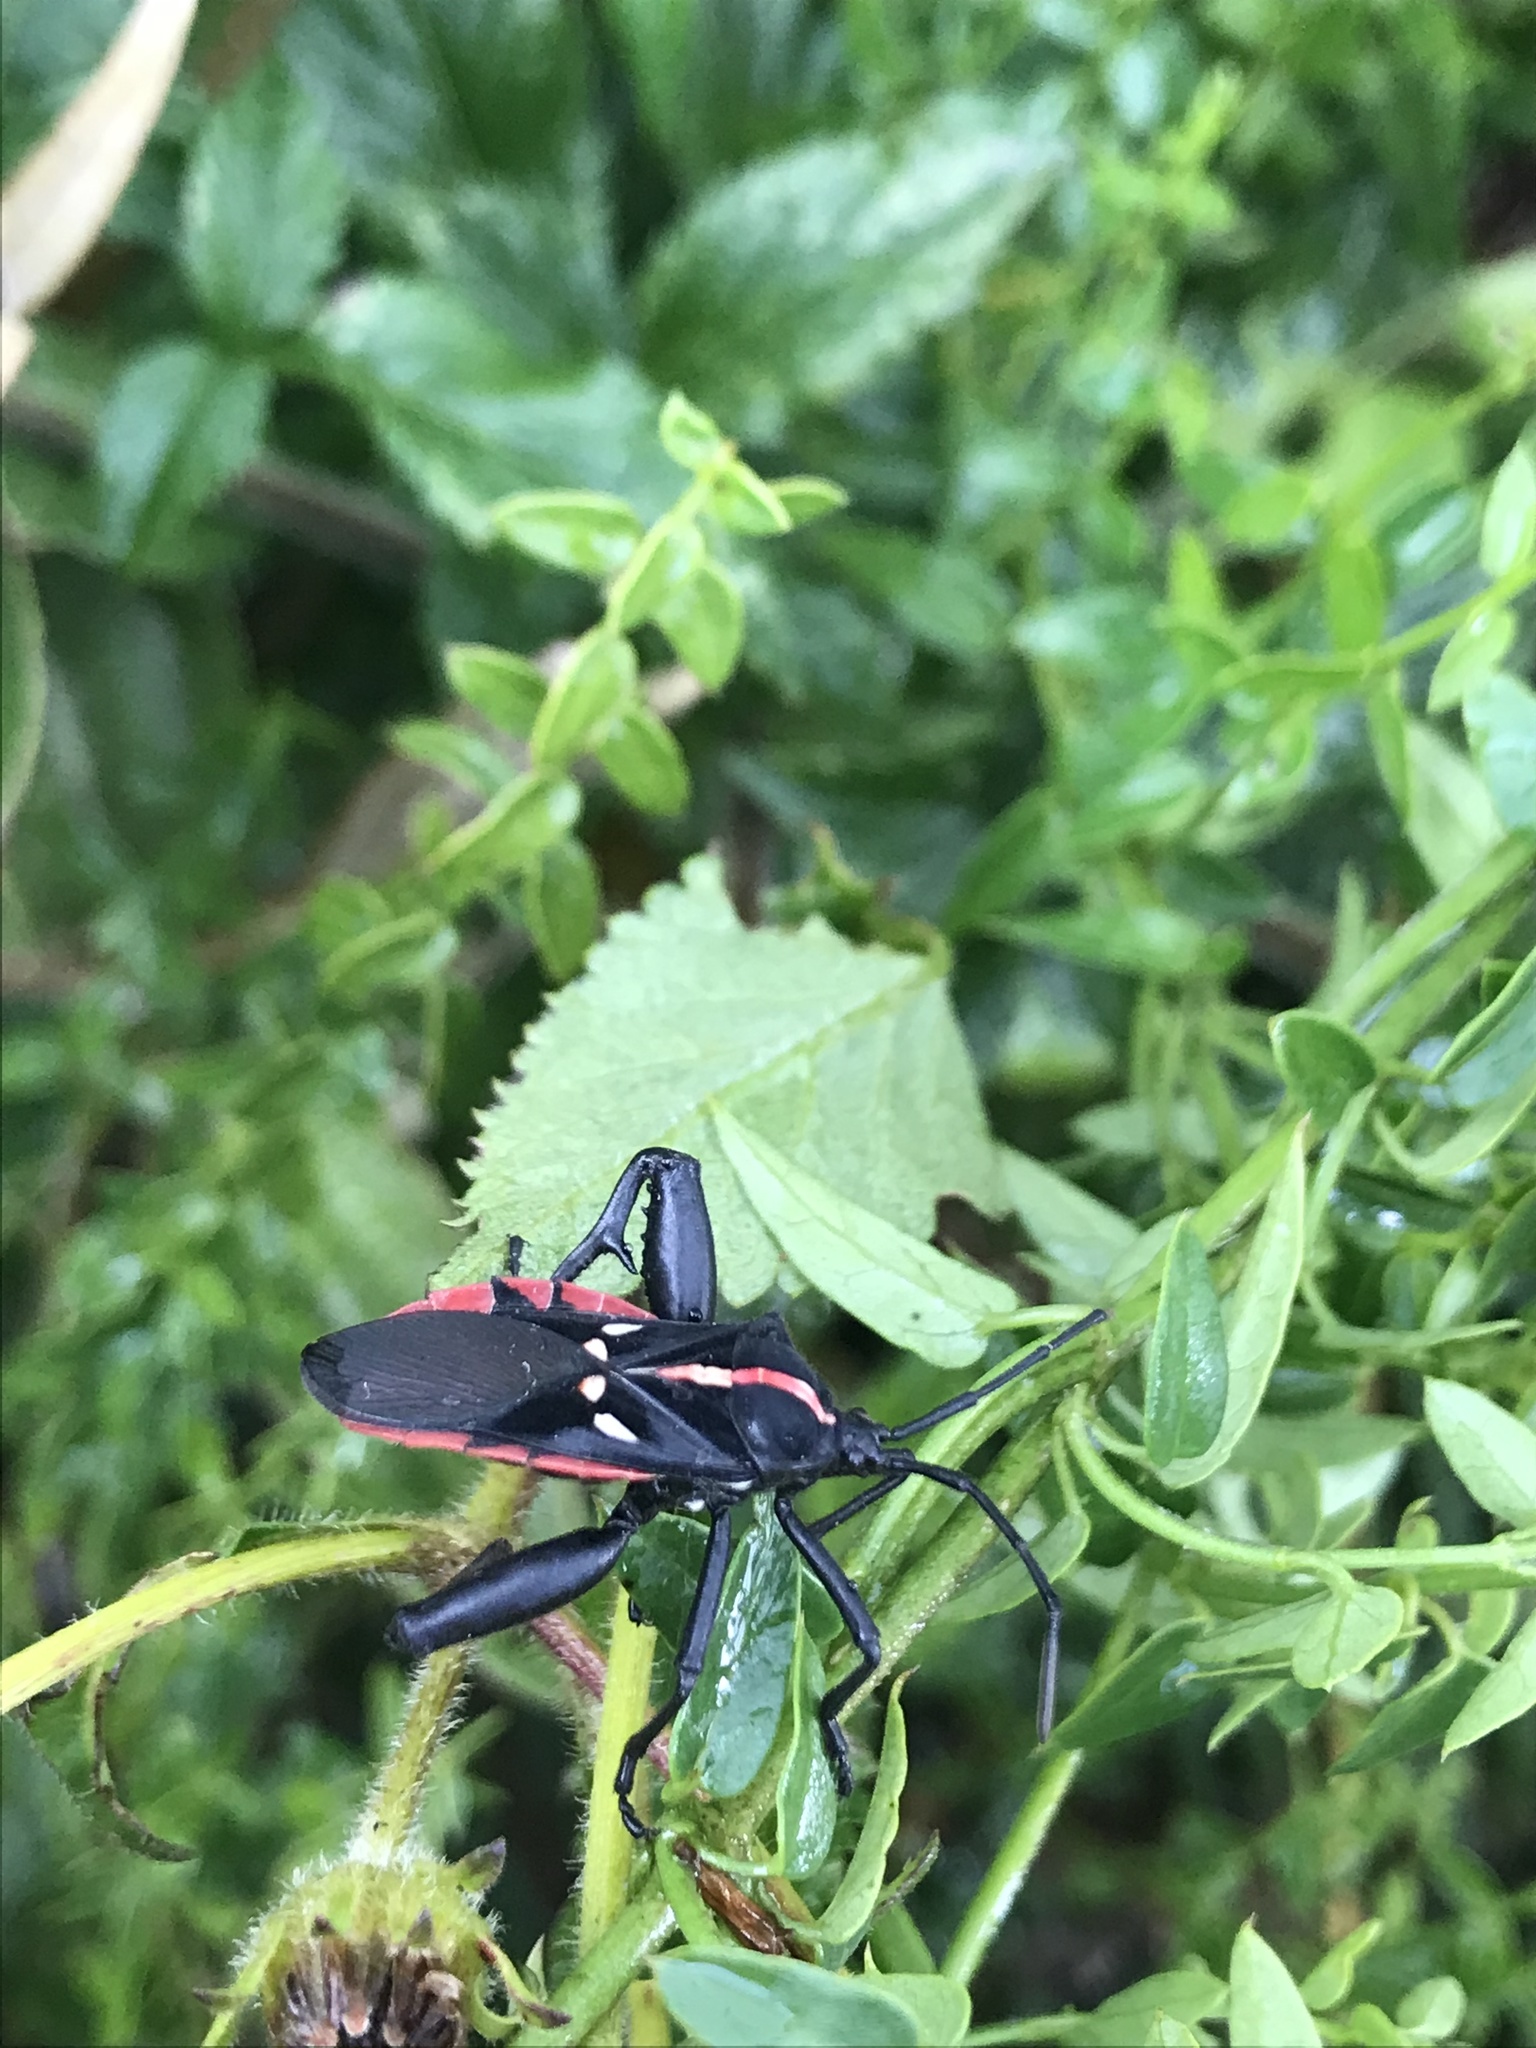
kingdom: Animalia
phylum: Arthropoda
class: Insecta
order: Hemiptera
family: Coreidae
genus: Curtius
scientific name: Curtius marginalis
